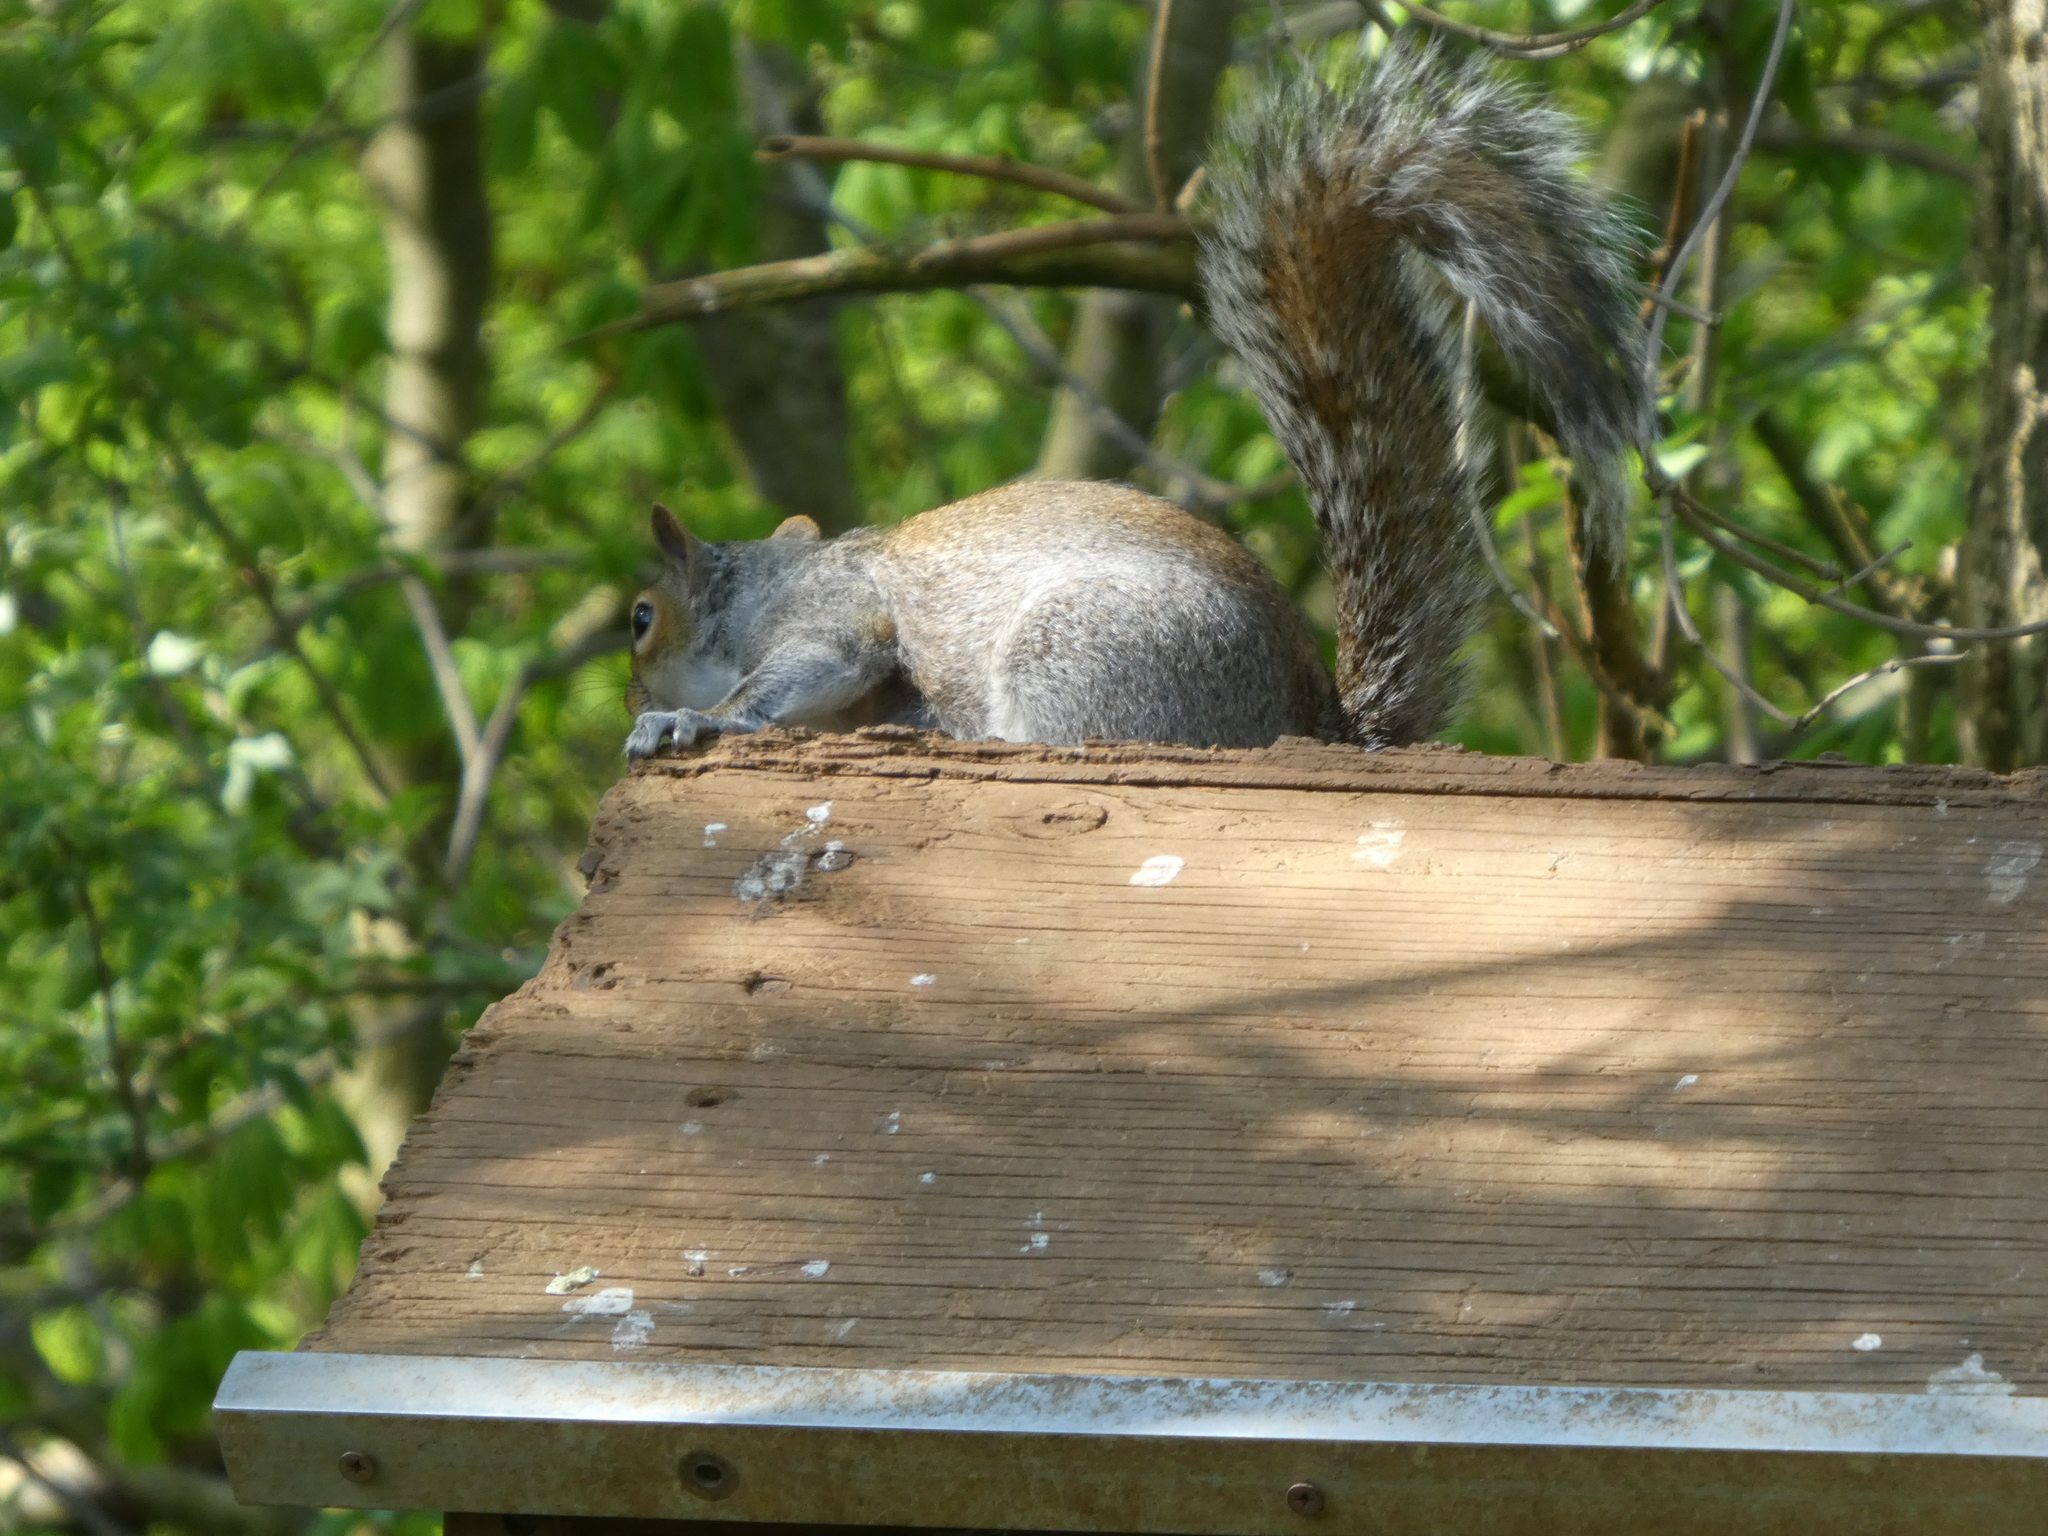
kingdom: Animalia
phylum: Chordata
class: Mammalia
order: Rodentia
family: Sciuridae
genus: Sciurus
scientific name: Sciurus carolinensis
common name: Eastern gray squirrel
